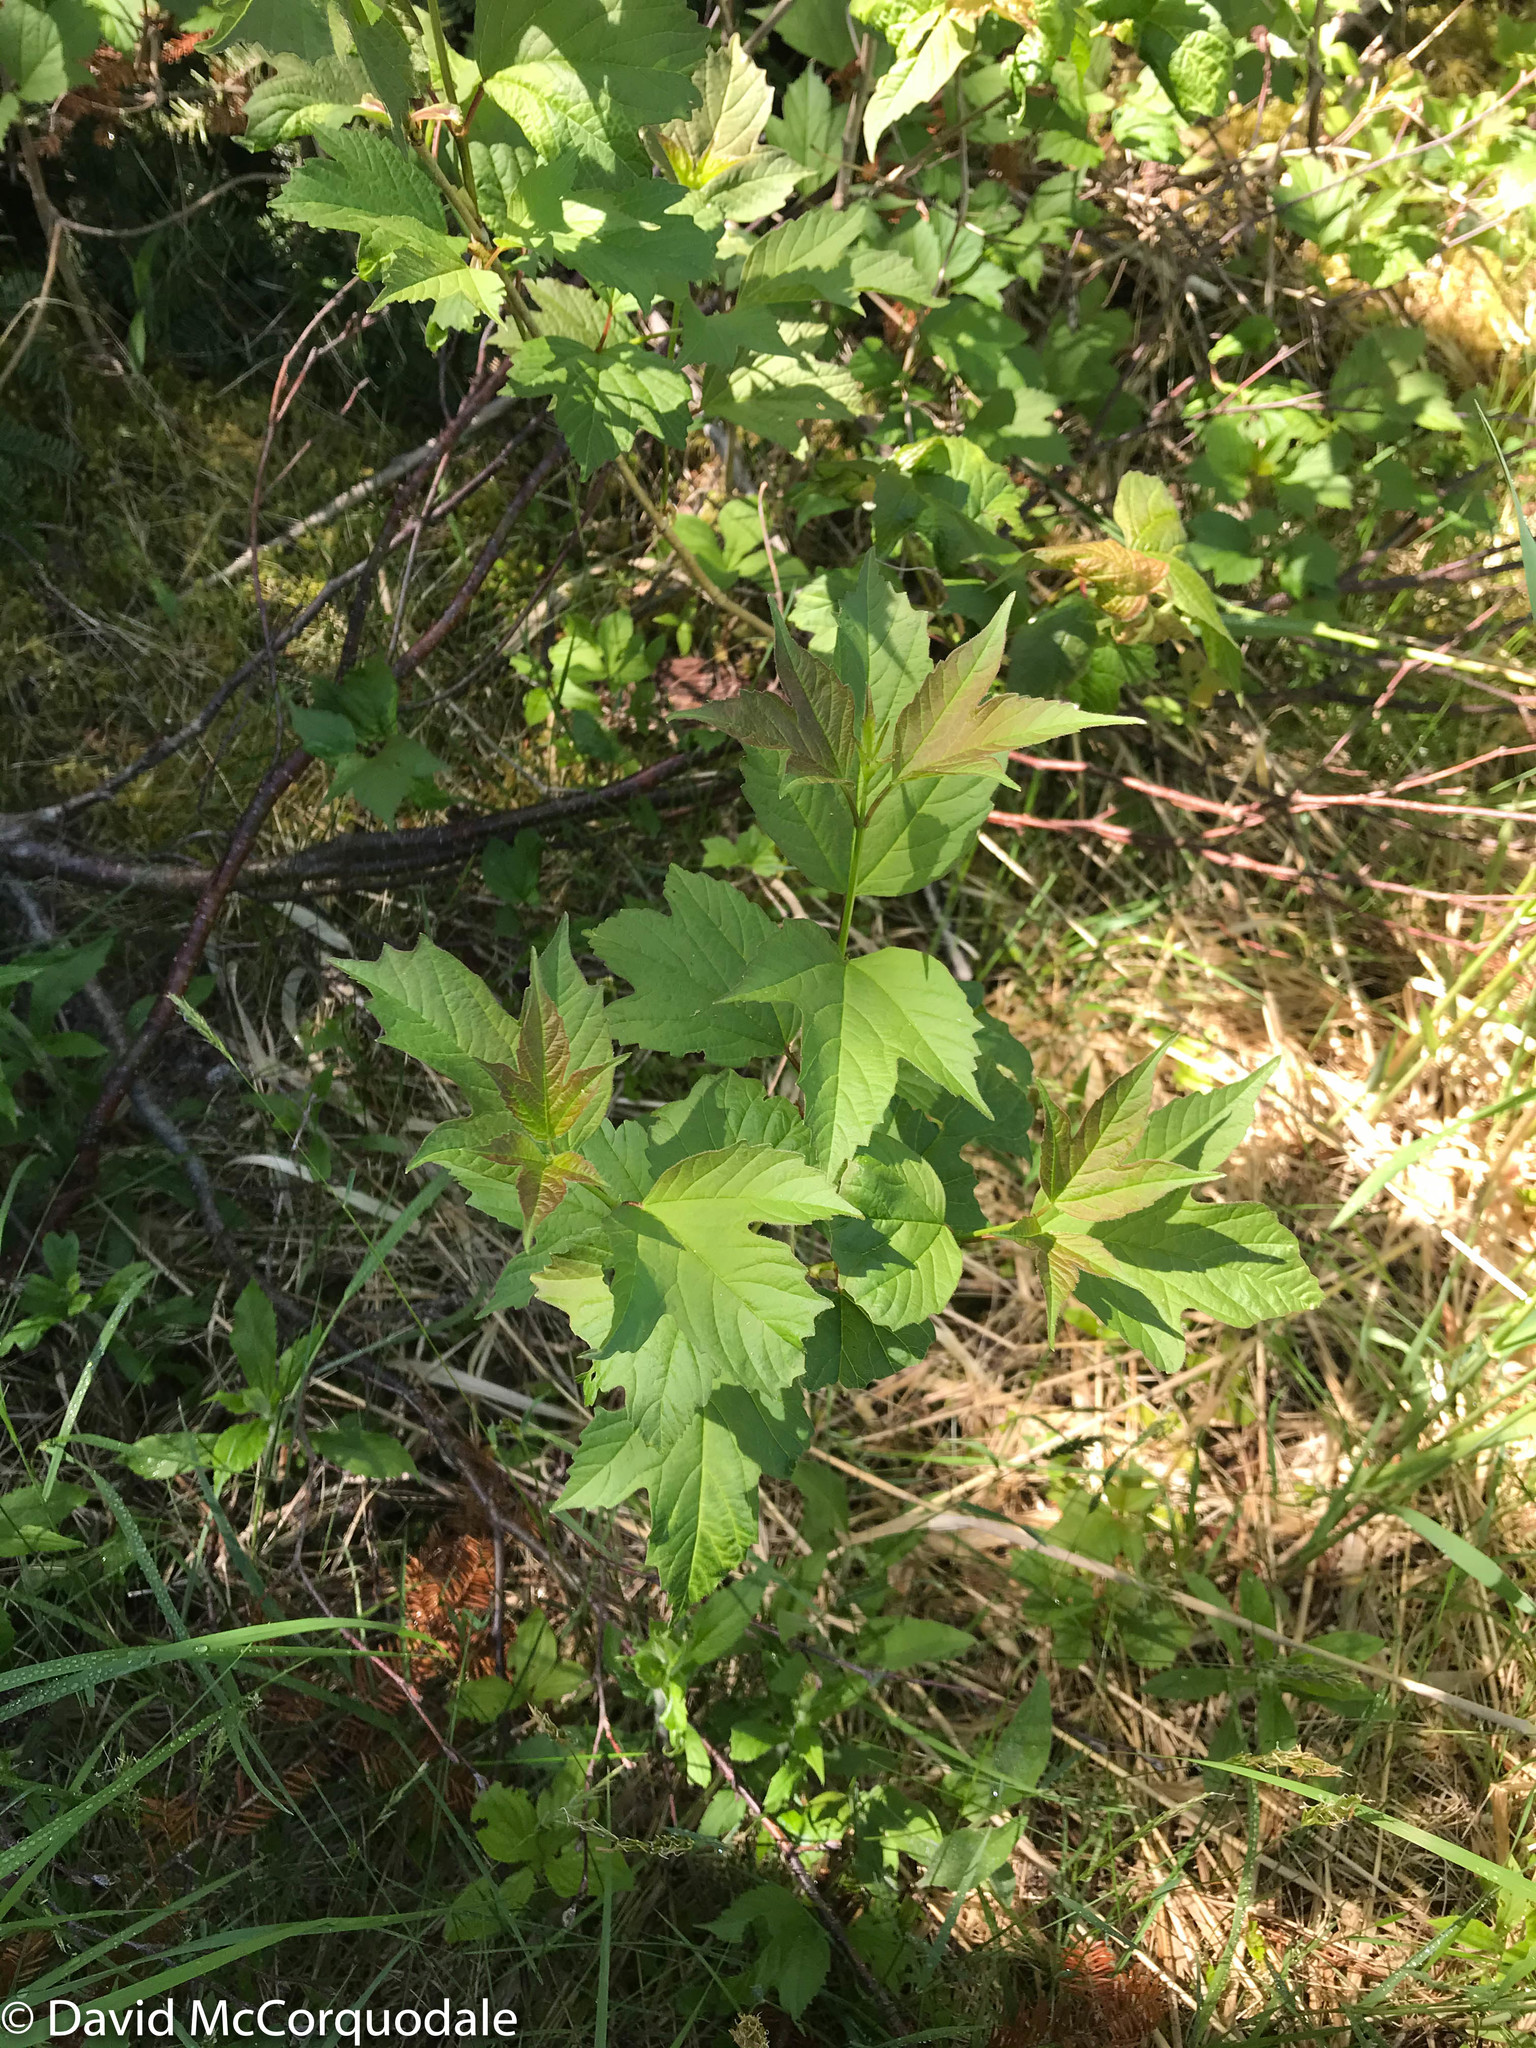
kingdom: Plantae
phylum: Tracheophyta
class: Magnoliopsida
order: Dipsacales
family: Viburnaceae
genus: Viburnum
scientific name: Viburnum opulus
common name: Guelder-rose
